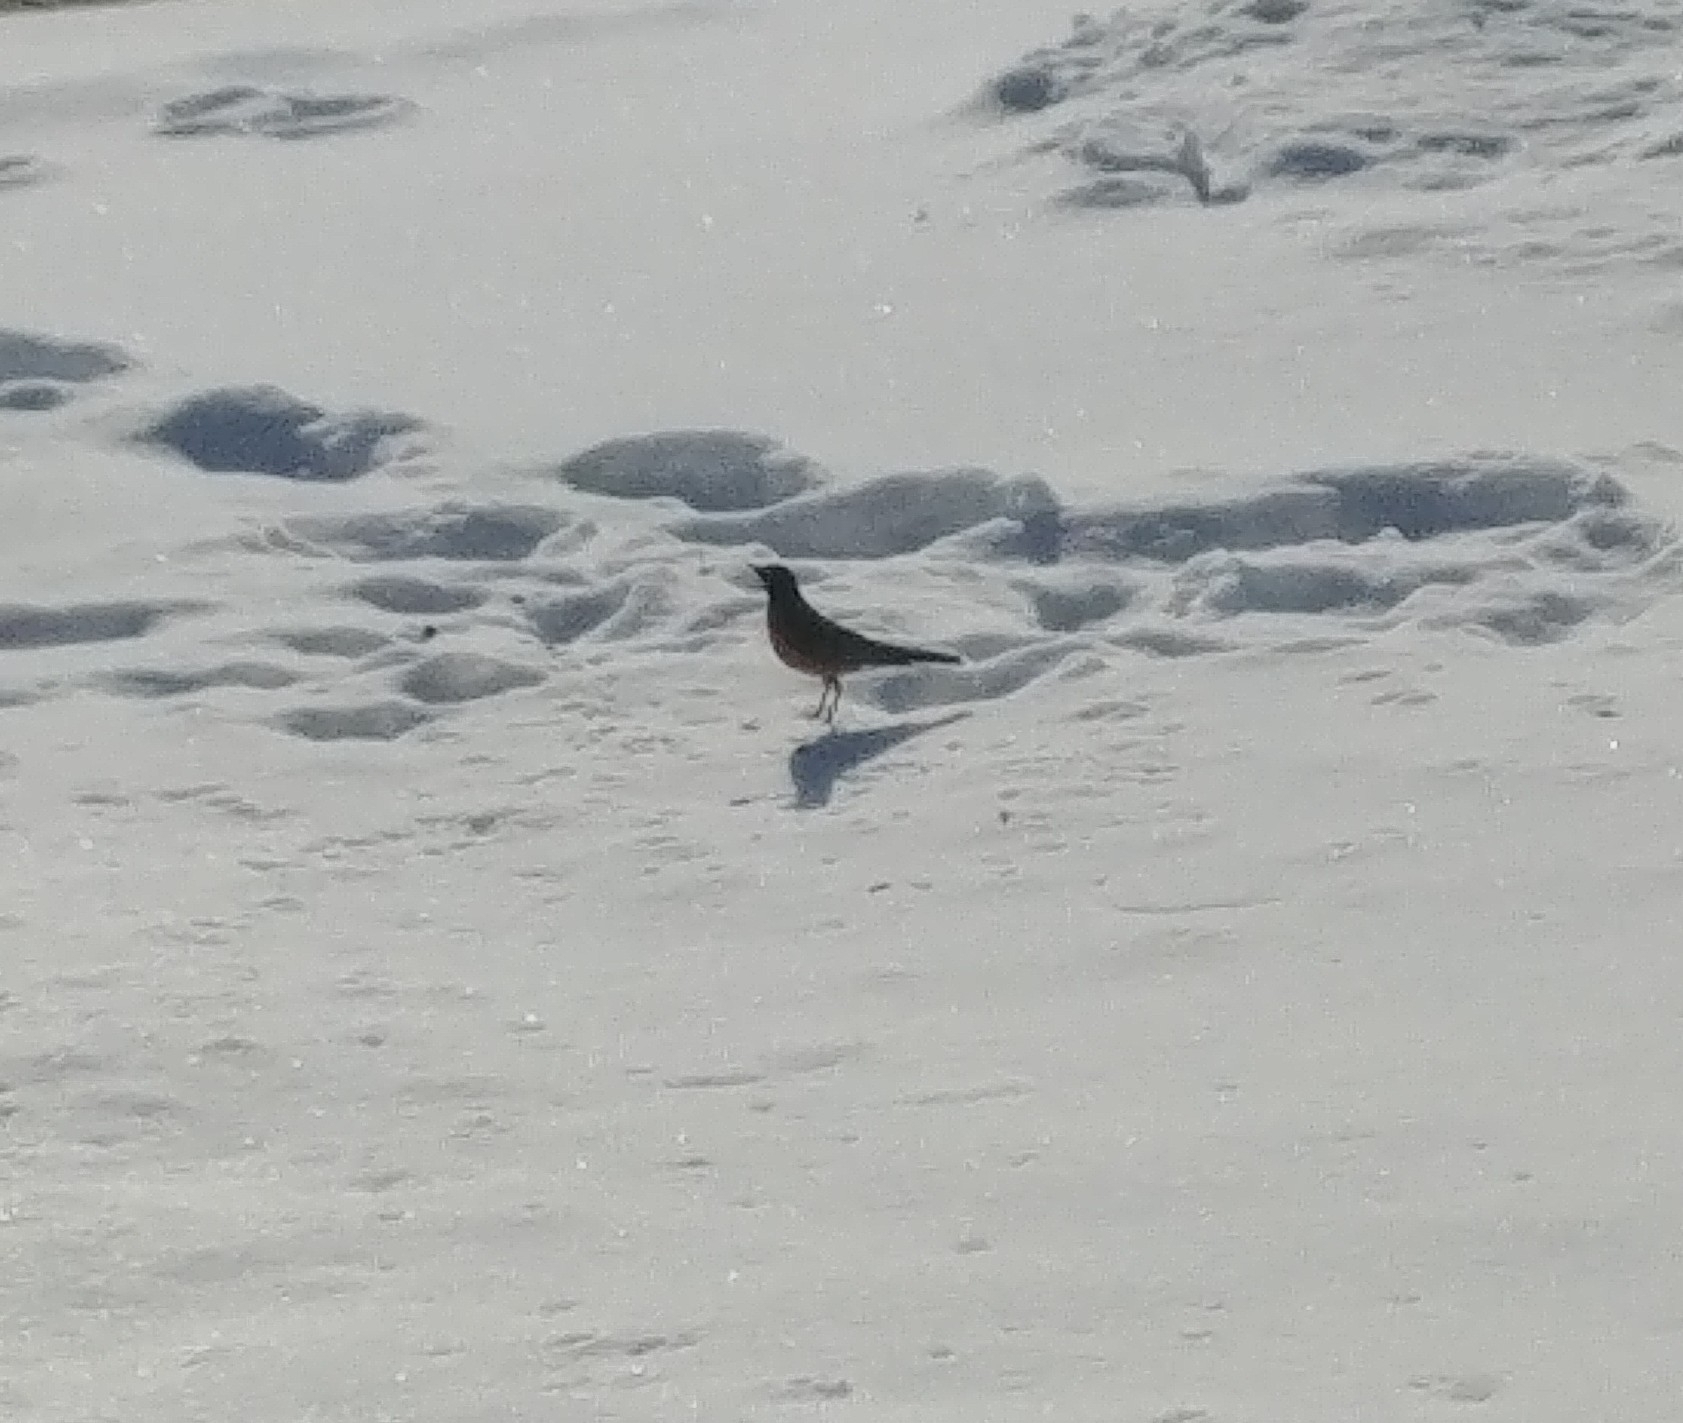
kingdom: Animalia
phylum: Chordata
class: Aves
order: Passeriformes
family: Turdidae
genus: Turdus
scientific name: Turdus migratorius
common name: American robin
